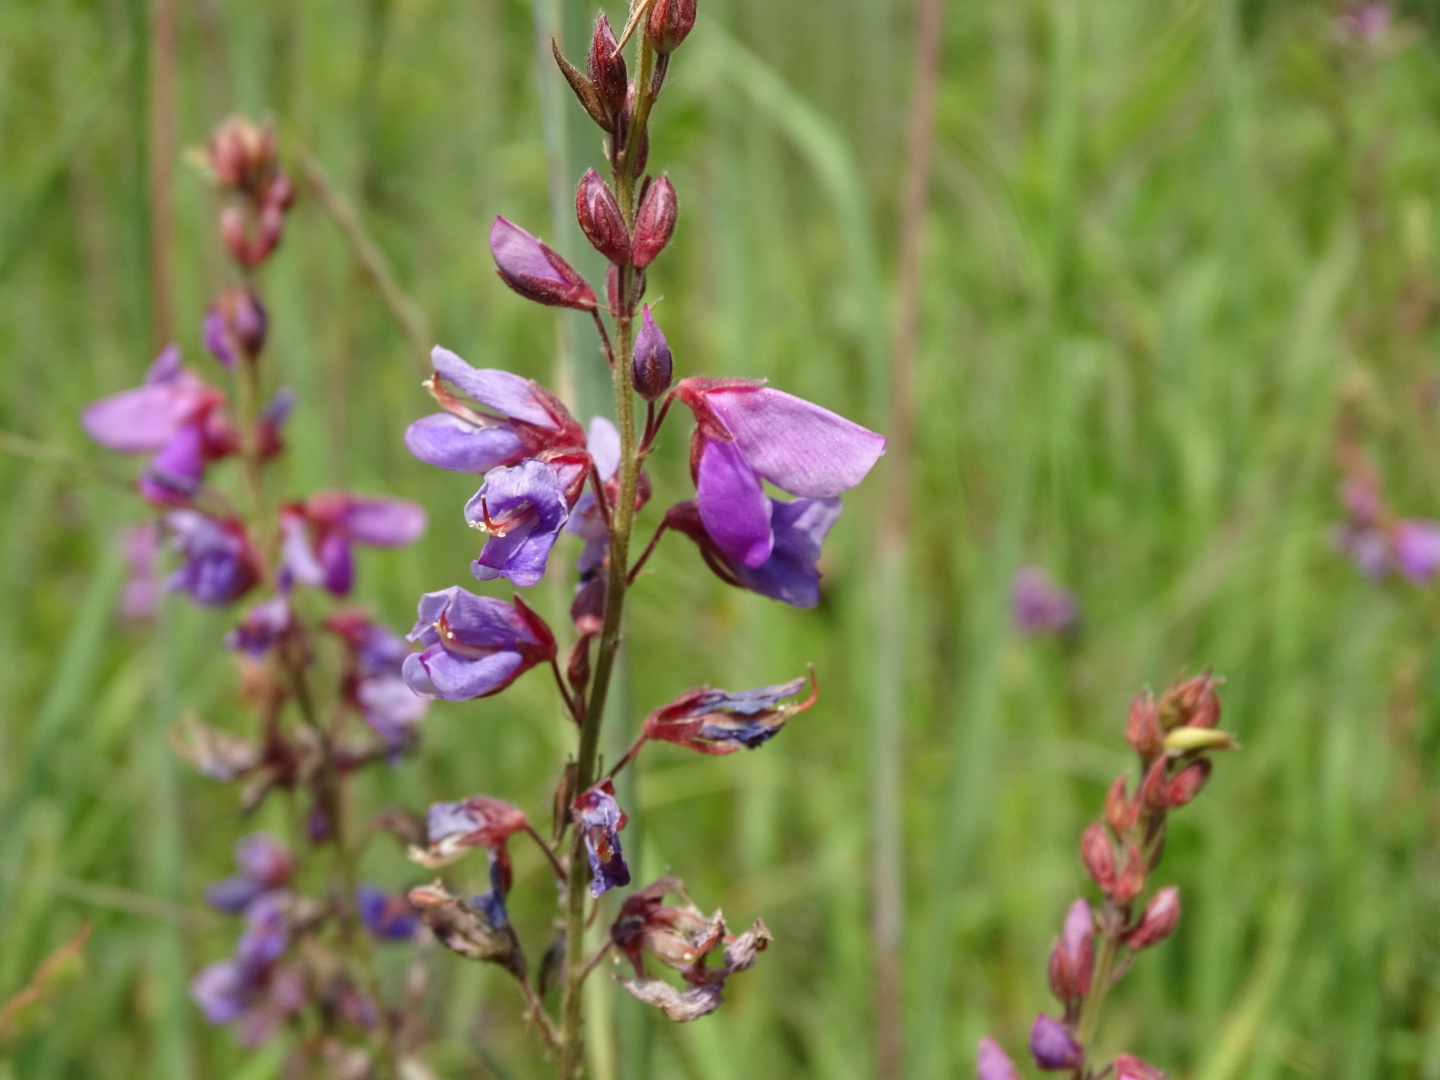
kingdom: Plantae
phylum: Tracheophyta
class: Magnoliopsida
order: Fabales
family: Fabaceae
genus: Desmodium
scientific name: Desmodium canadense
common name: Canada tick-trefoil
